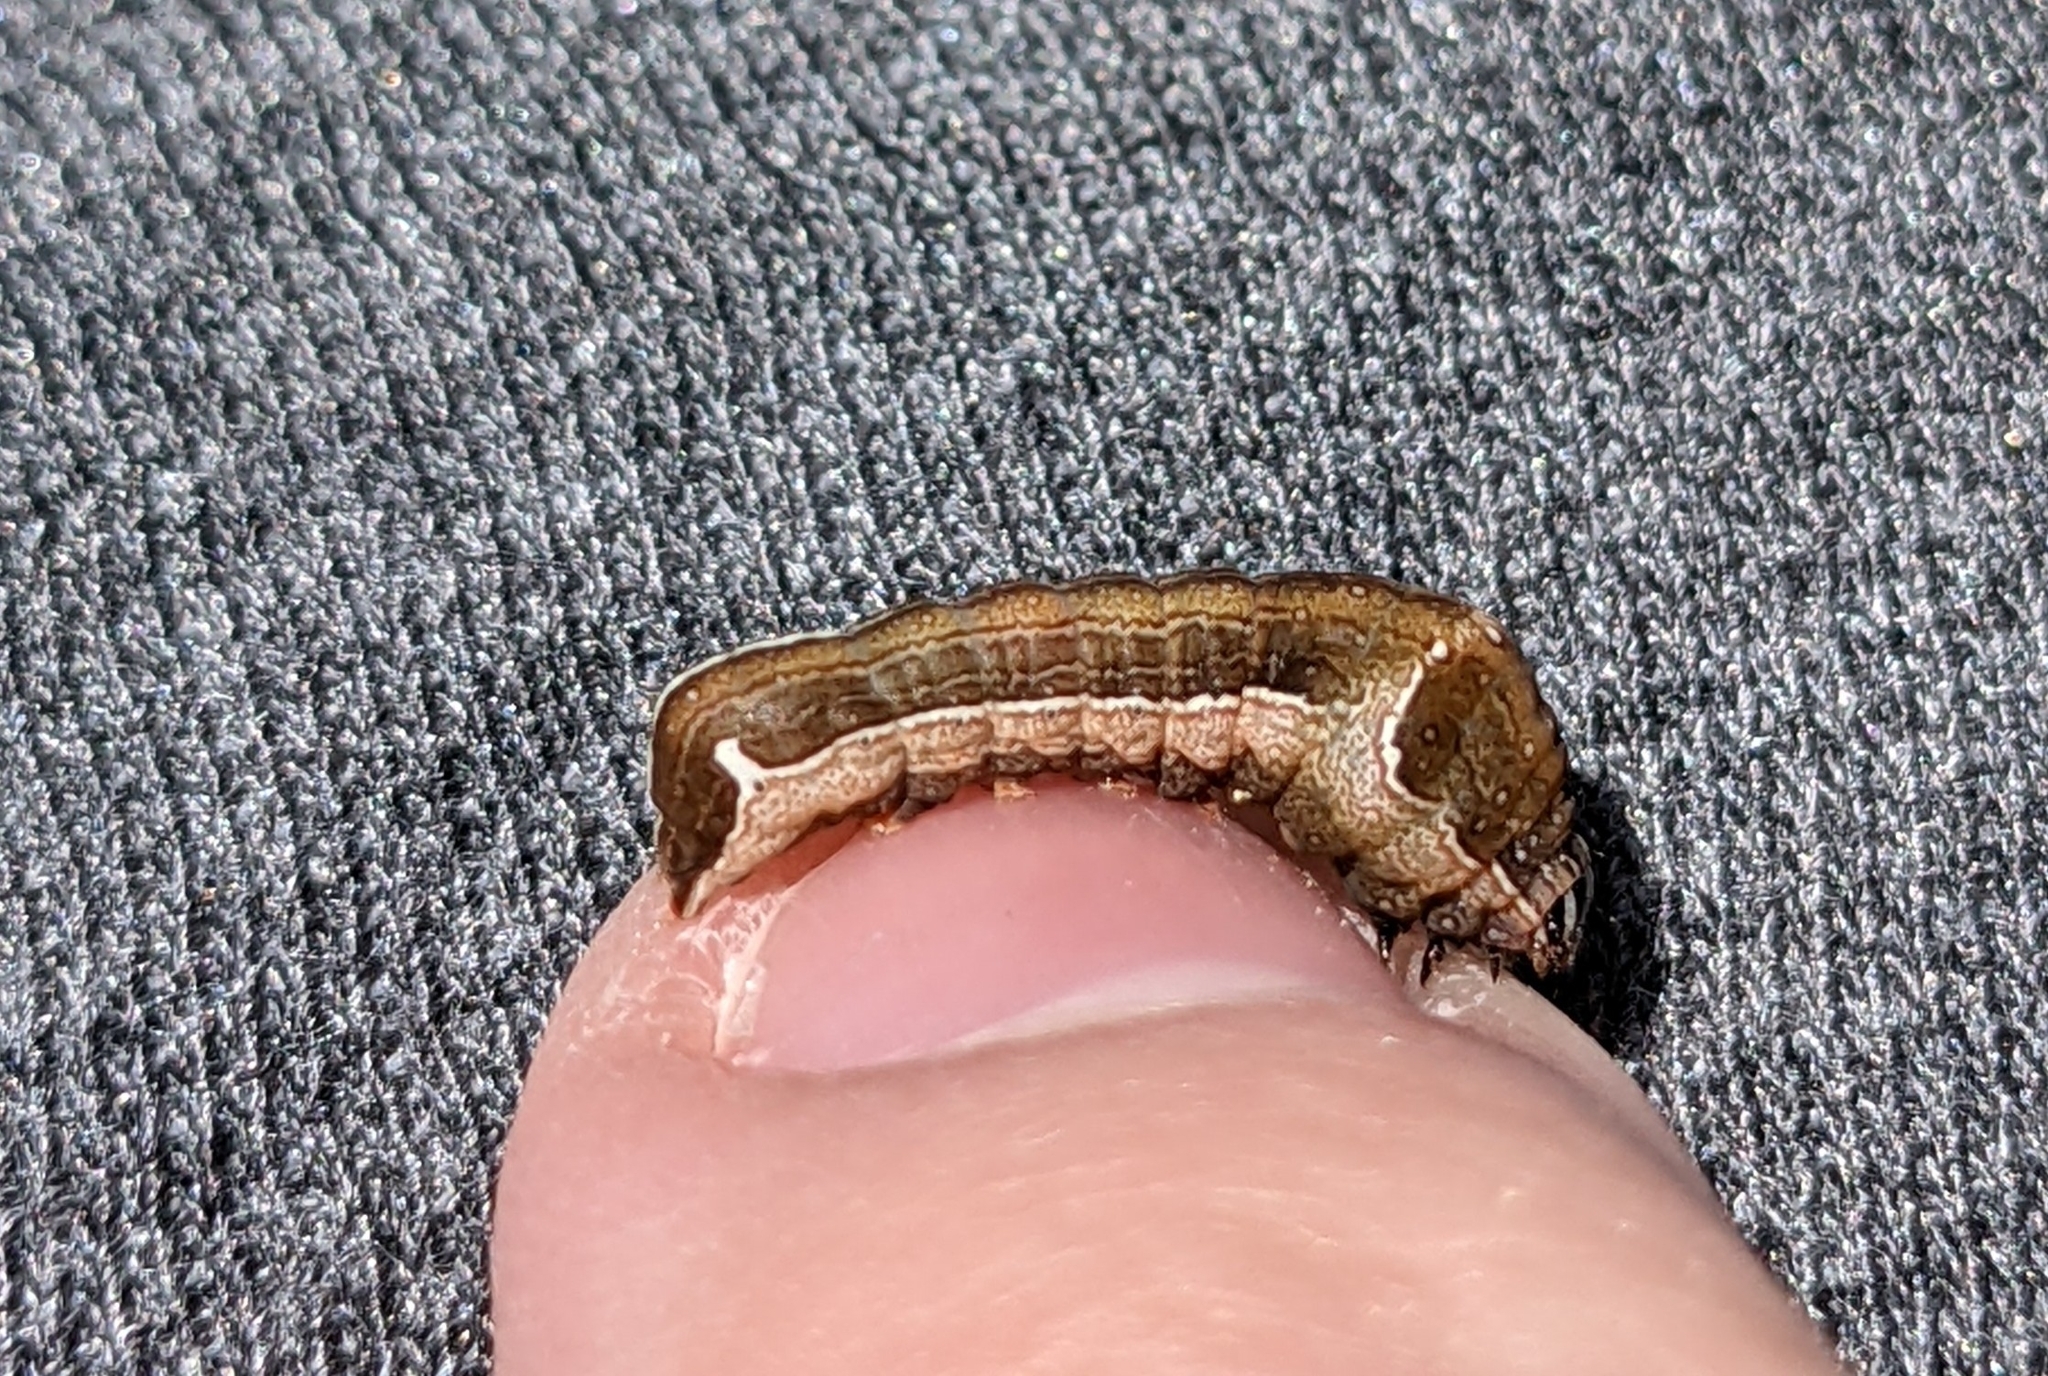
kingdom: Animalia
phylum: Arthropoda
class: Insecta
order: Lepidoptera
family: Noctuidae
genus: Galgula
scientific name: Galgula partita
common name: Wedgeling
